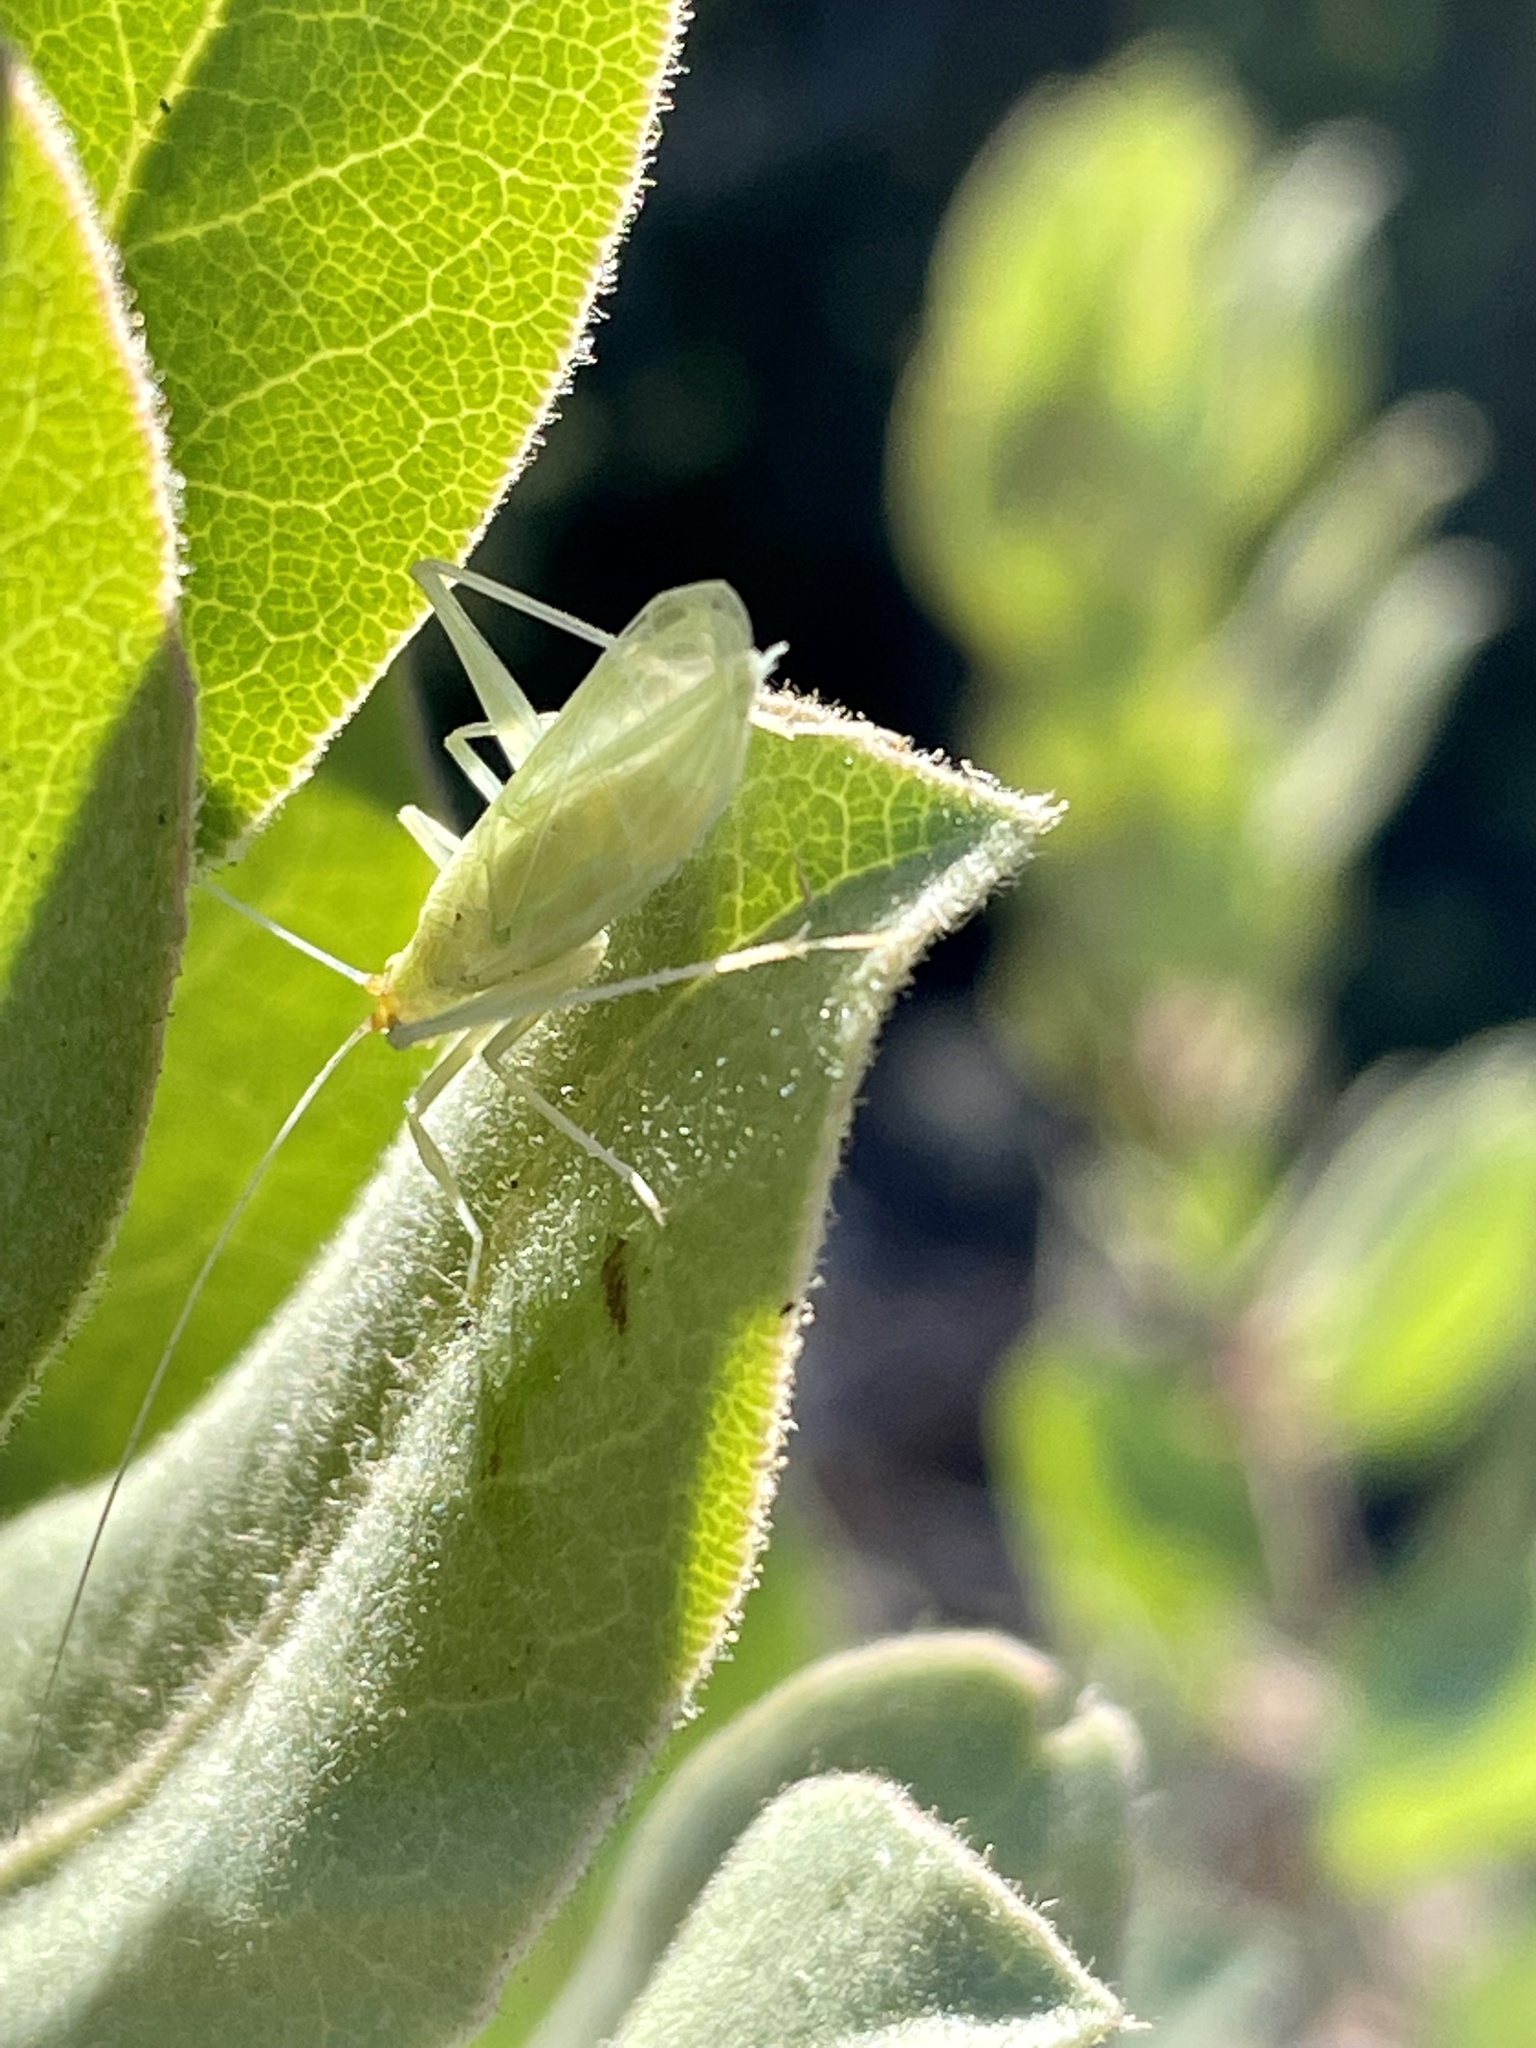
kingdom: Animalia
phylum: Arthropoda
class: Insecta
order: Orthoptera
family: Gryllidae
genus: Oecanthus
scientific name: Oecanthus
